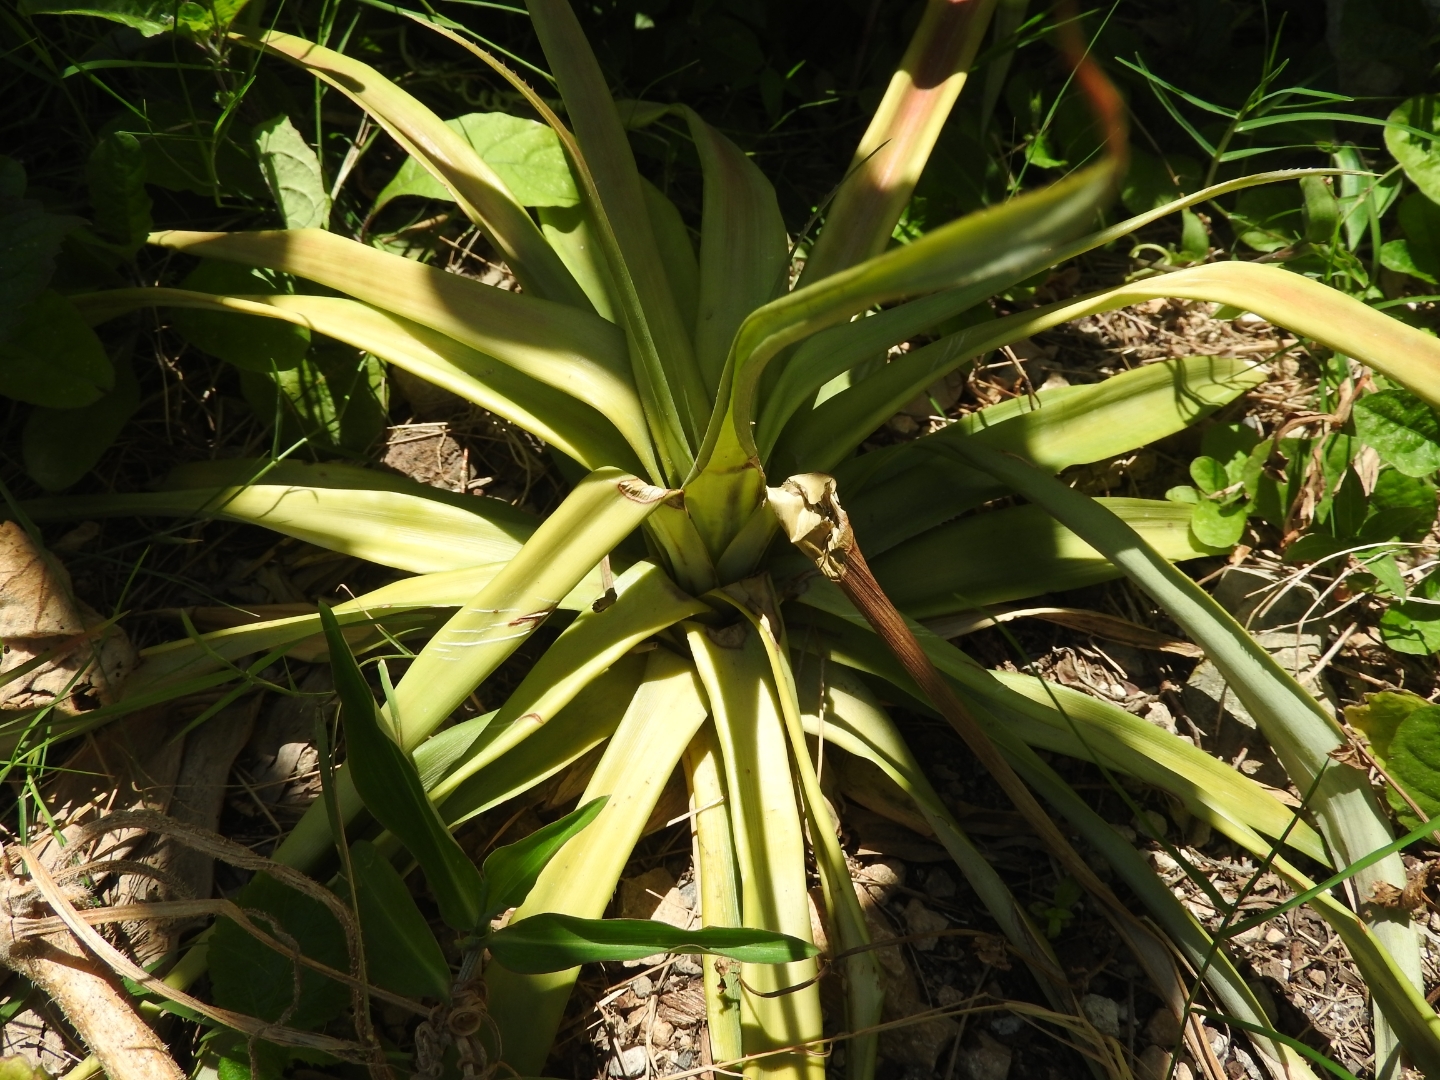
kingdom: Plantae
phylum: Tracheophyta
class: Liliopsida
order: Poales
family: Bromeliaceae
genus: Ananas
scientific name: Ananas comosus
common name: Pineapple
